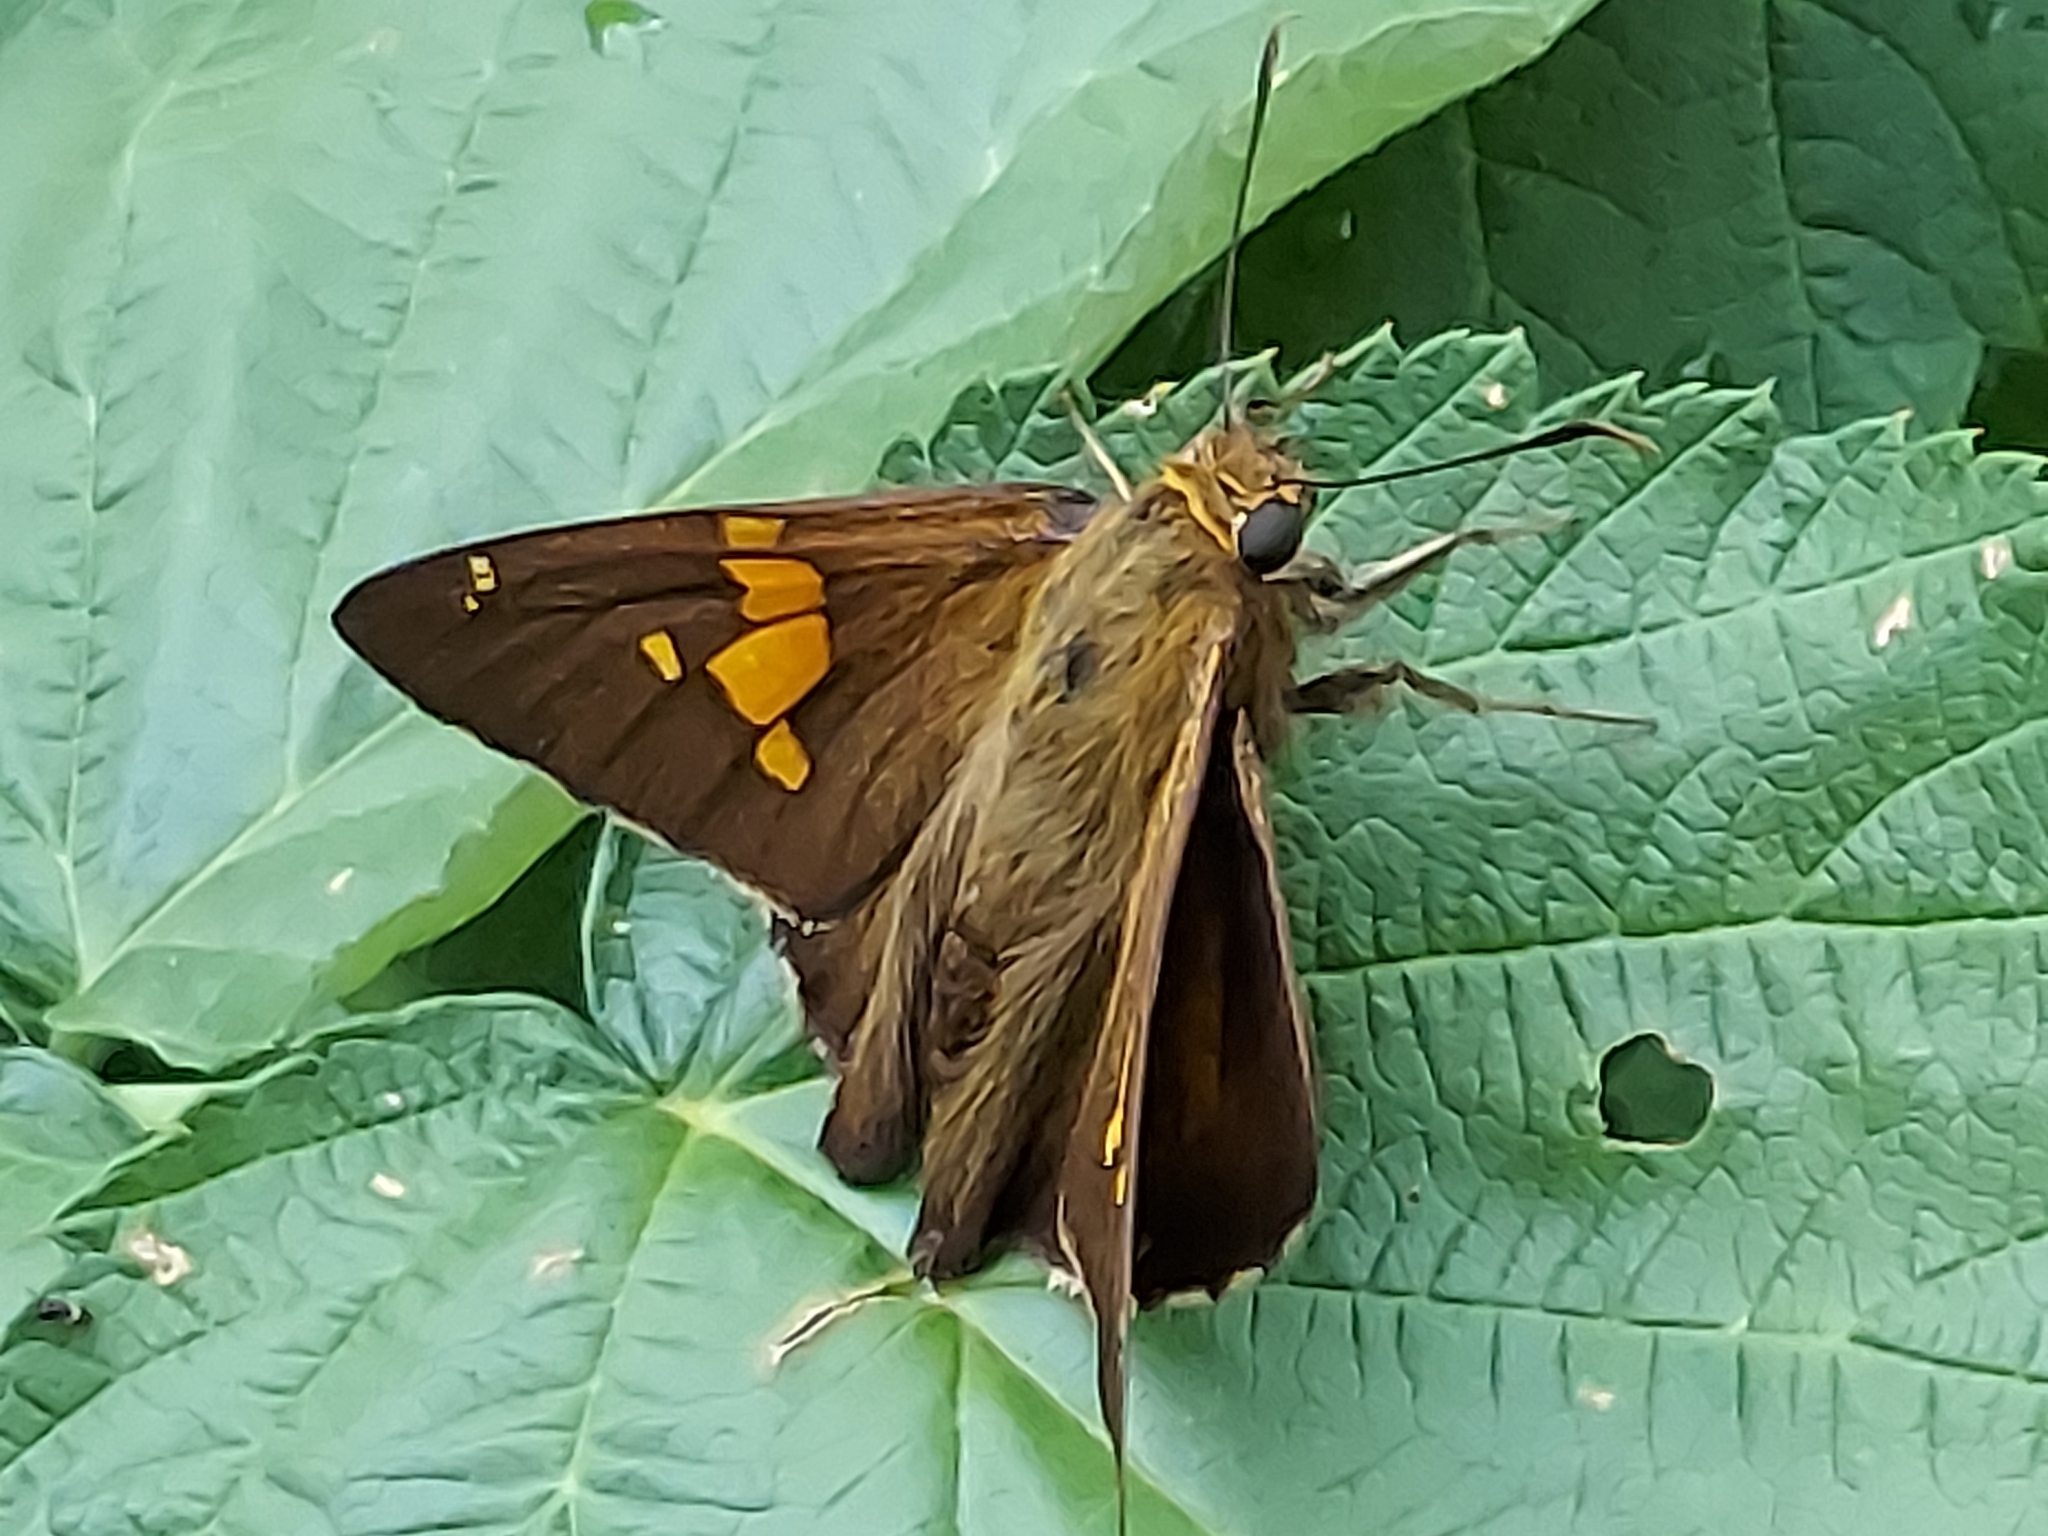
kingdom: Animalia
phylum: Arthropoda
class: Insecta
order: Lepidoptera
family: Hesperiidae
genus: Epargyreus
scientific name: Epargyreus clarus
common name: Silver-spotted skipper
